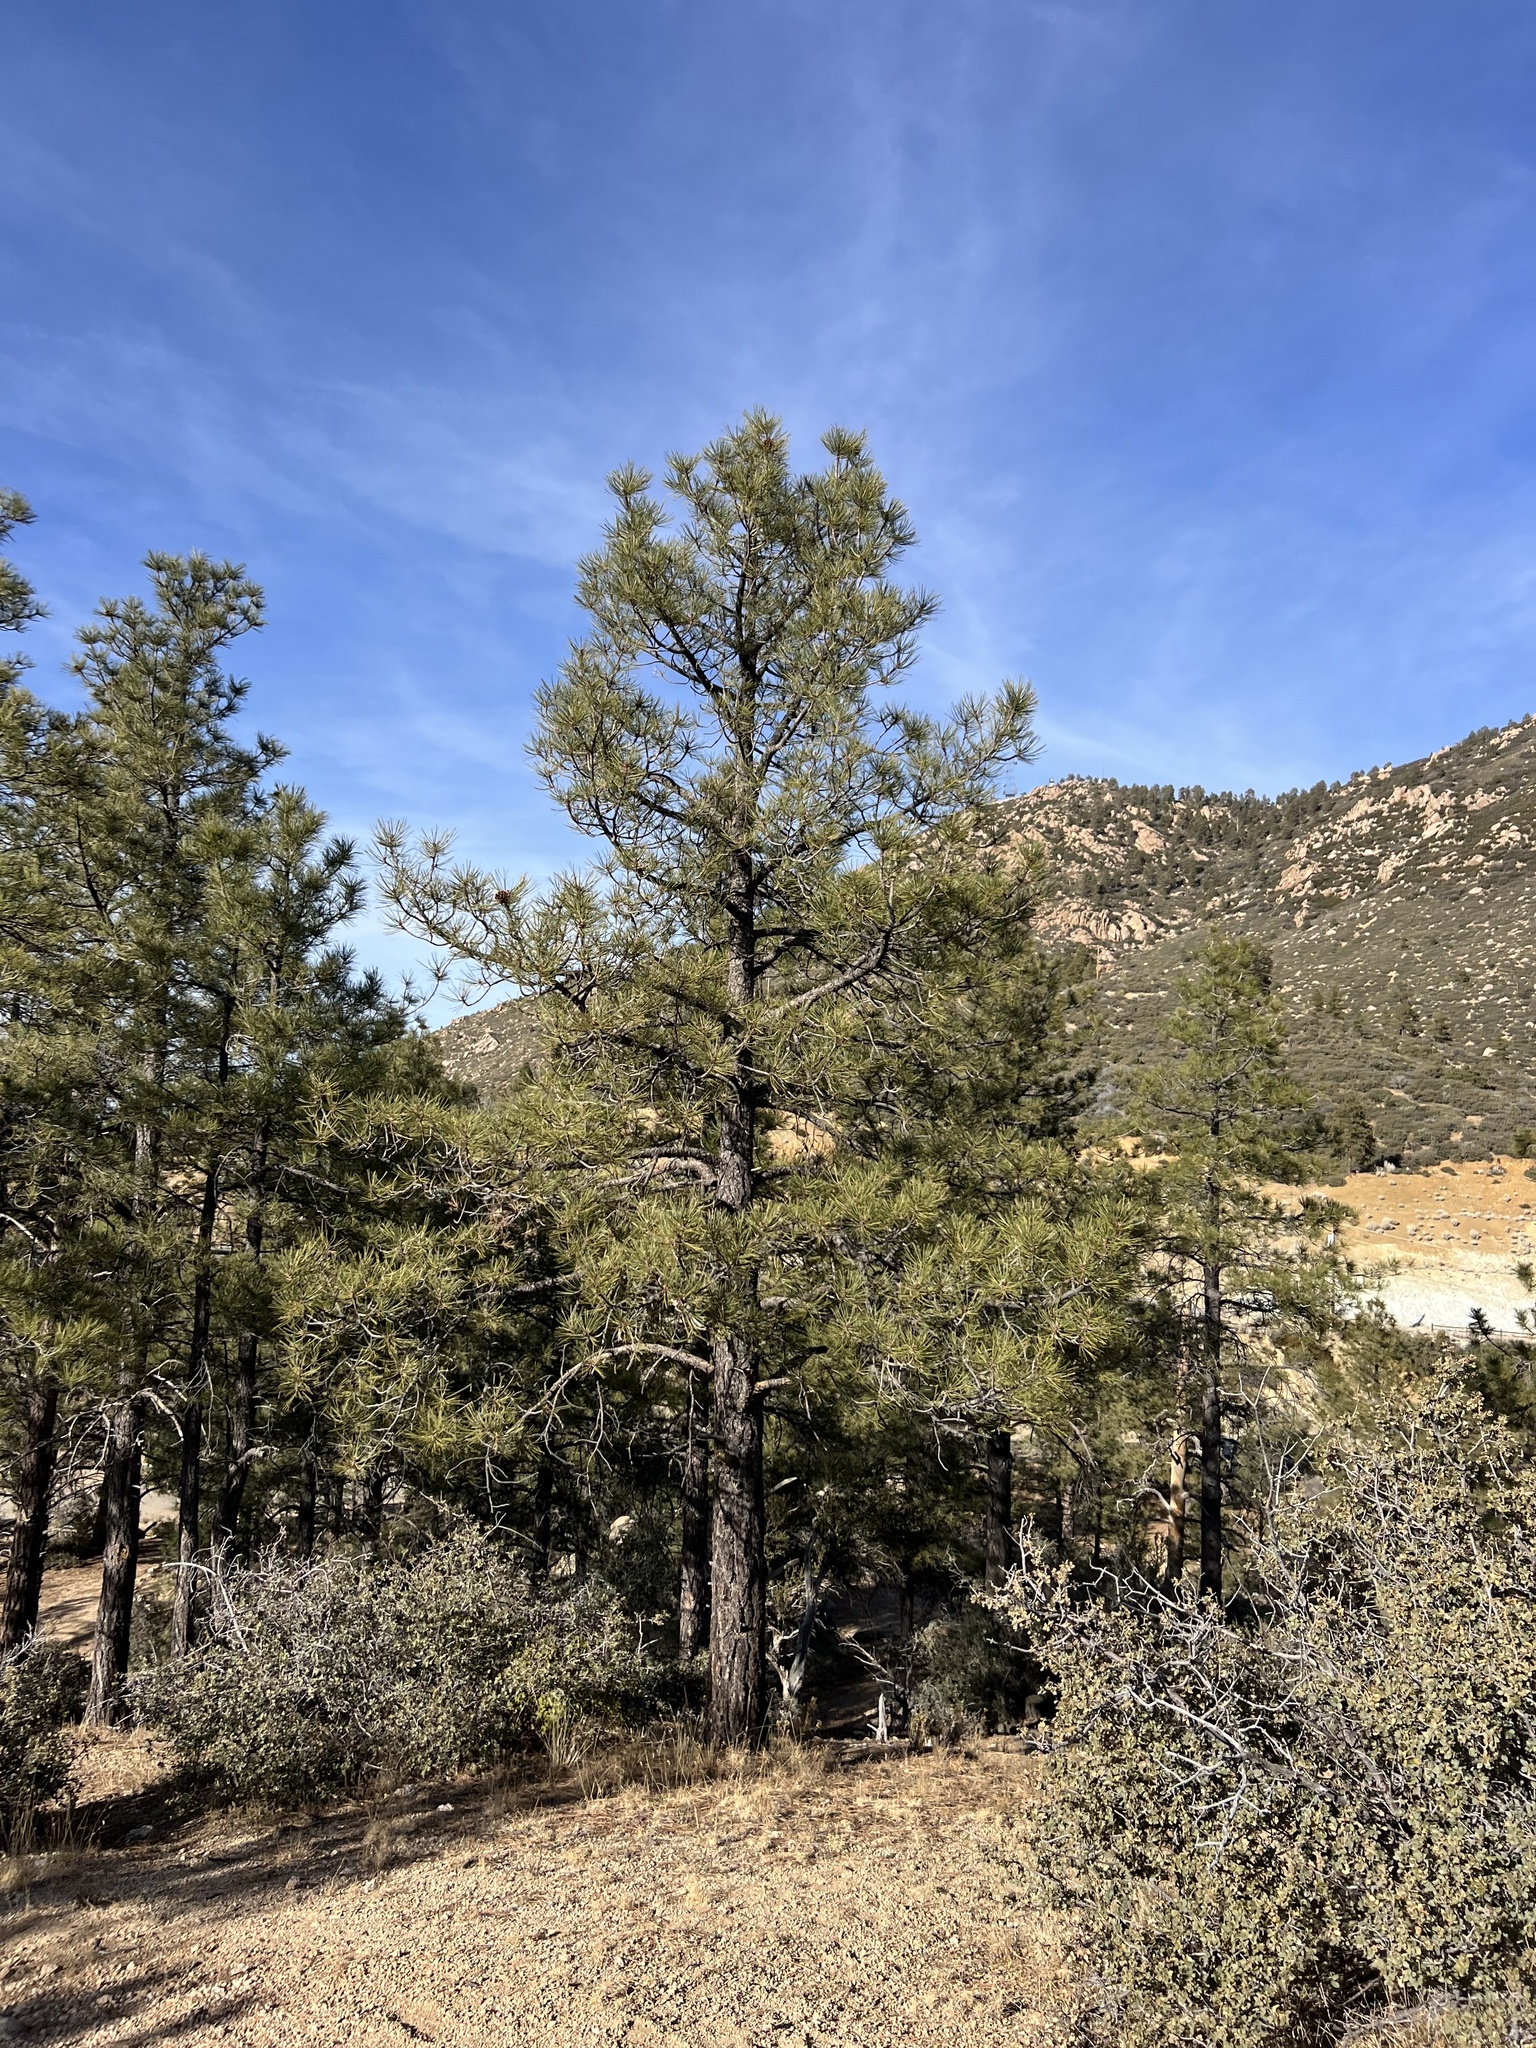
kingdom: Plantae
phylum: Tracheophyta
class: Pinopsida
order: Pinales
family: Pinaceae
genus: Pinus
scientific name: Pinus ponderosa
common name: Western yellow-pine
